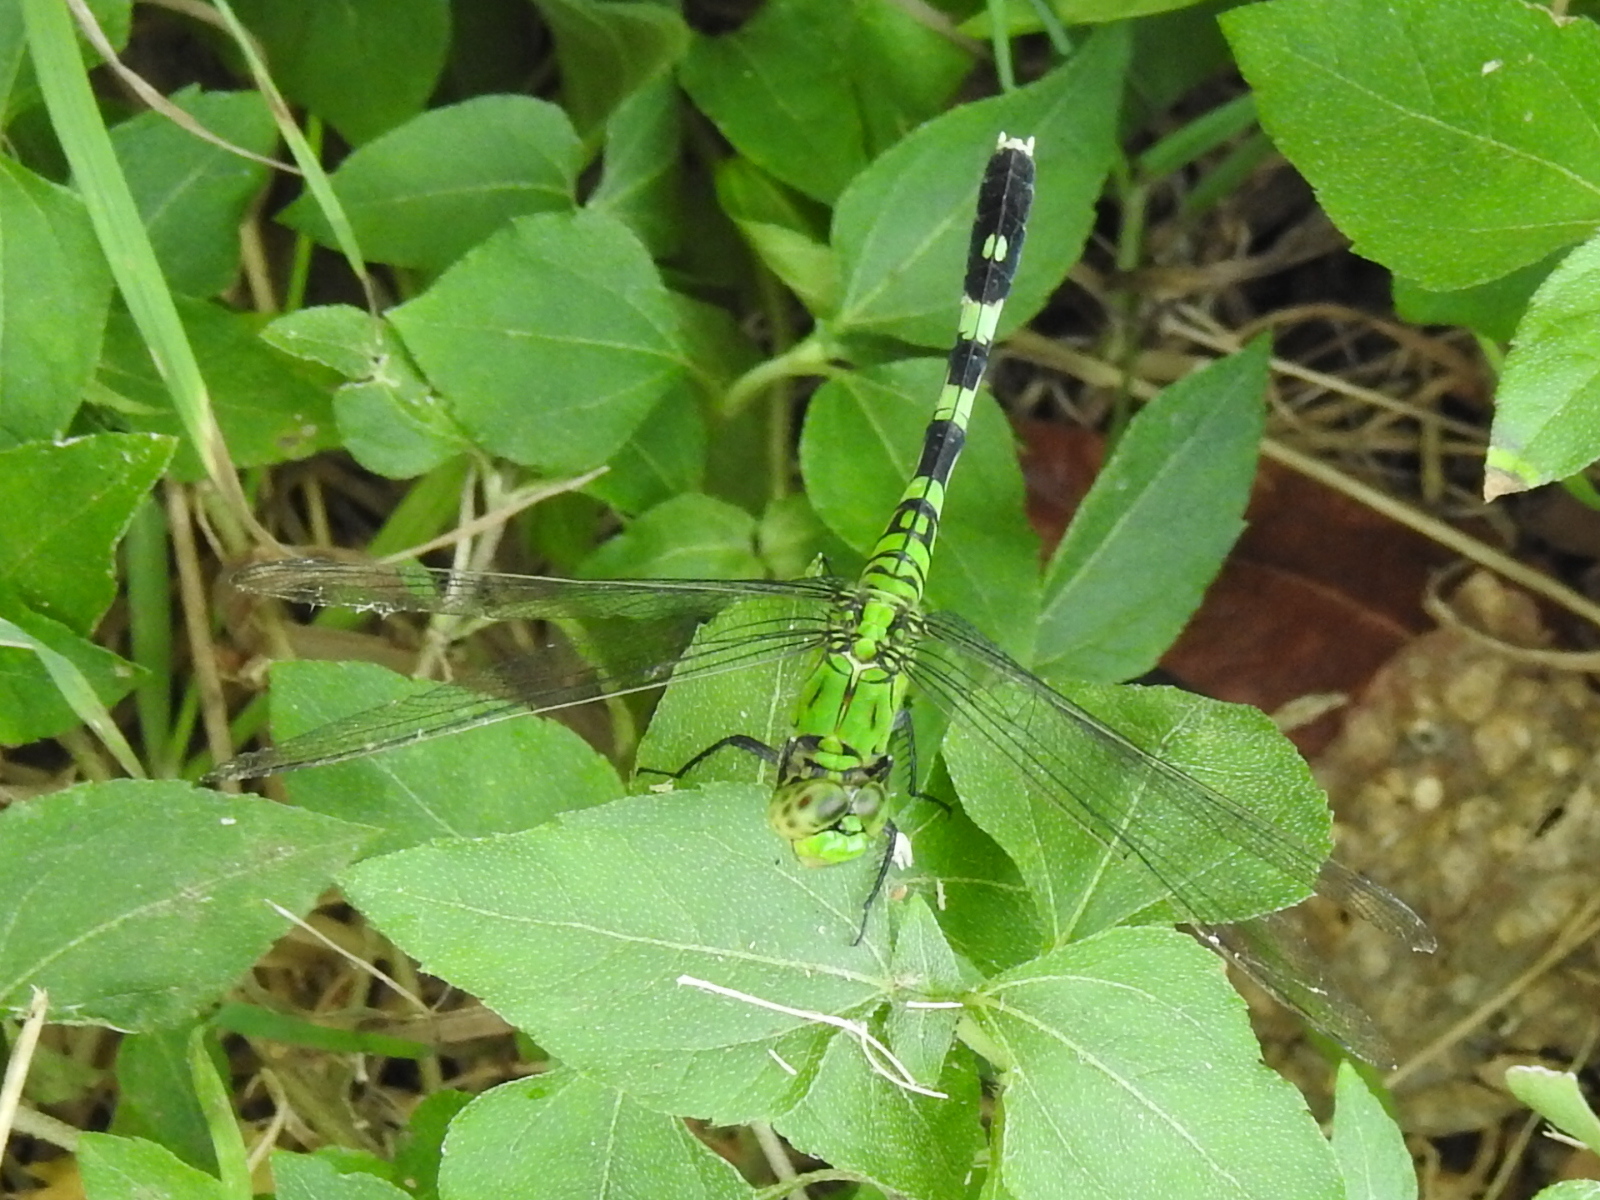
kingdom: Animalia
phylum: Arthropoda
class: Insecta
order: Odonata
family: Libellulidae
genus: Erythemis
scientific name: Erythemis simplicicollis
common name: Eastern pondhawk
